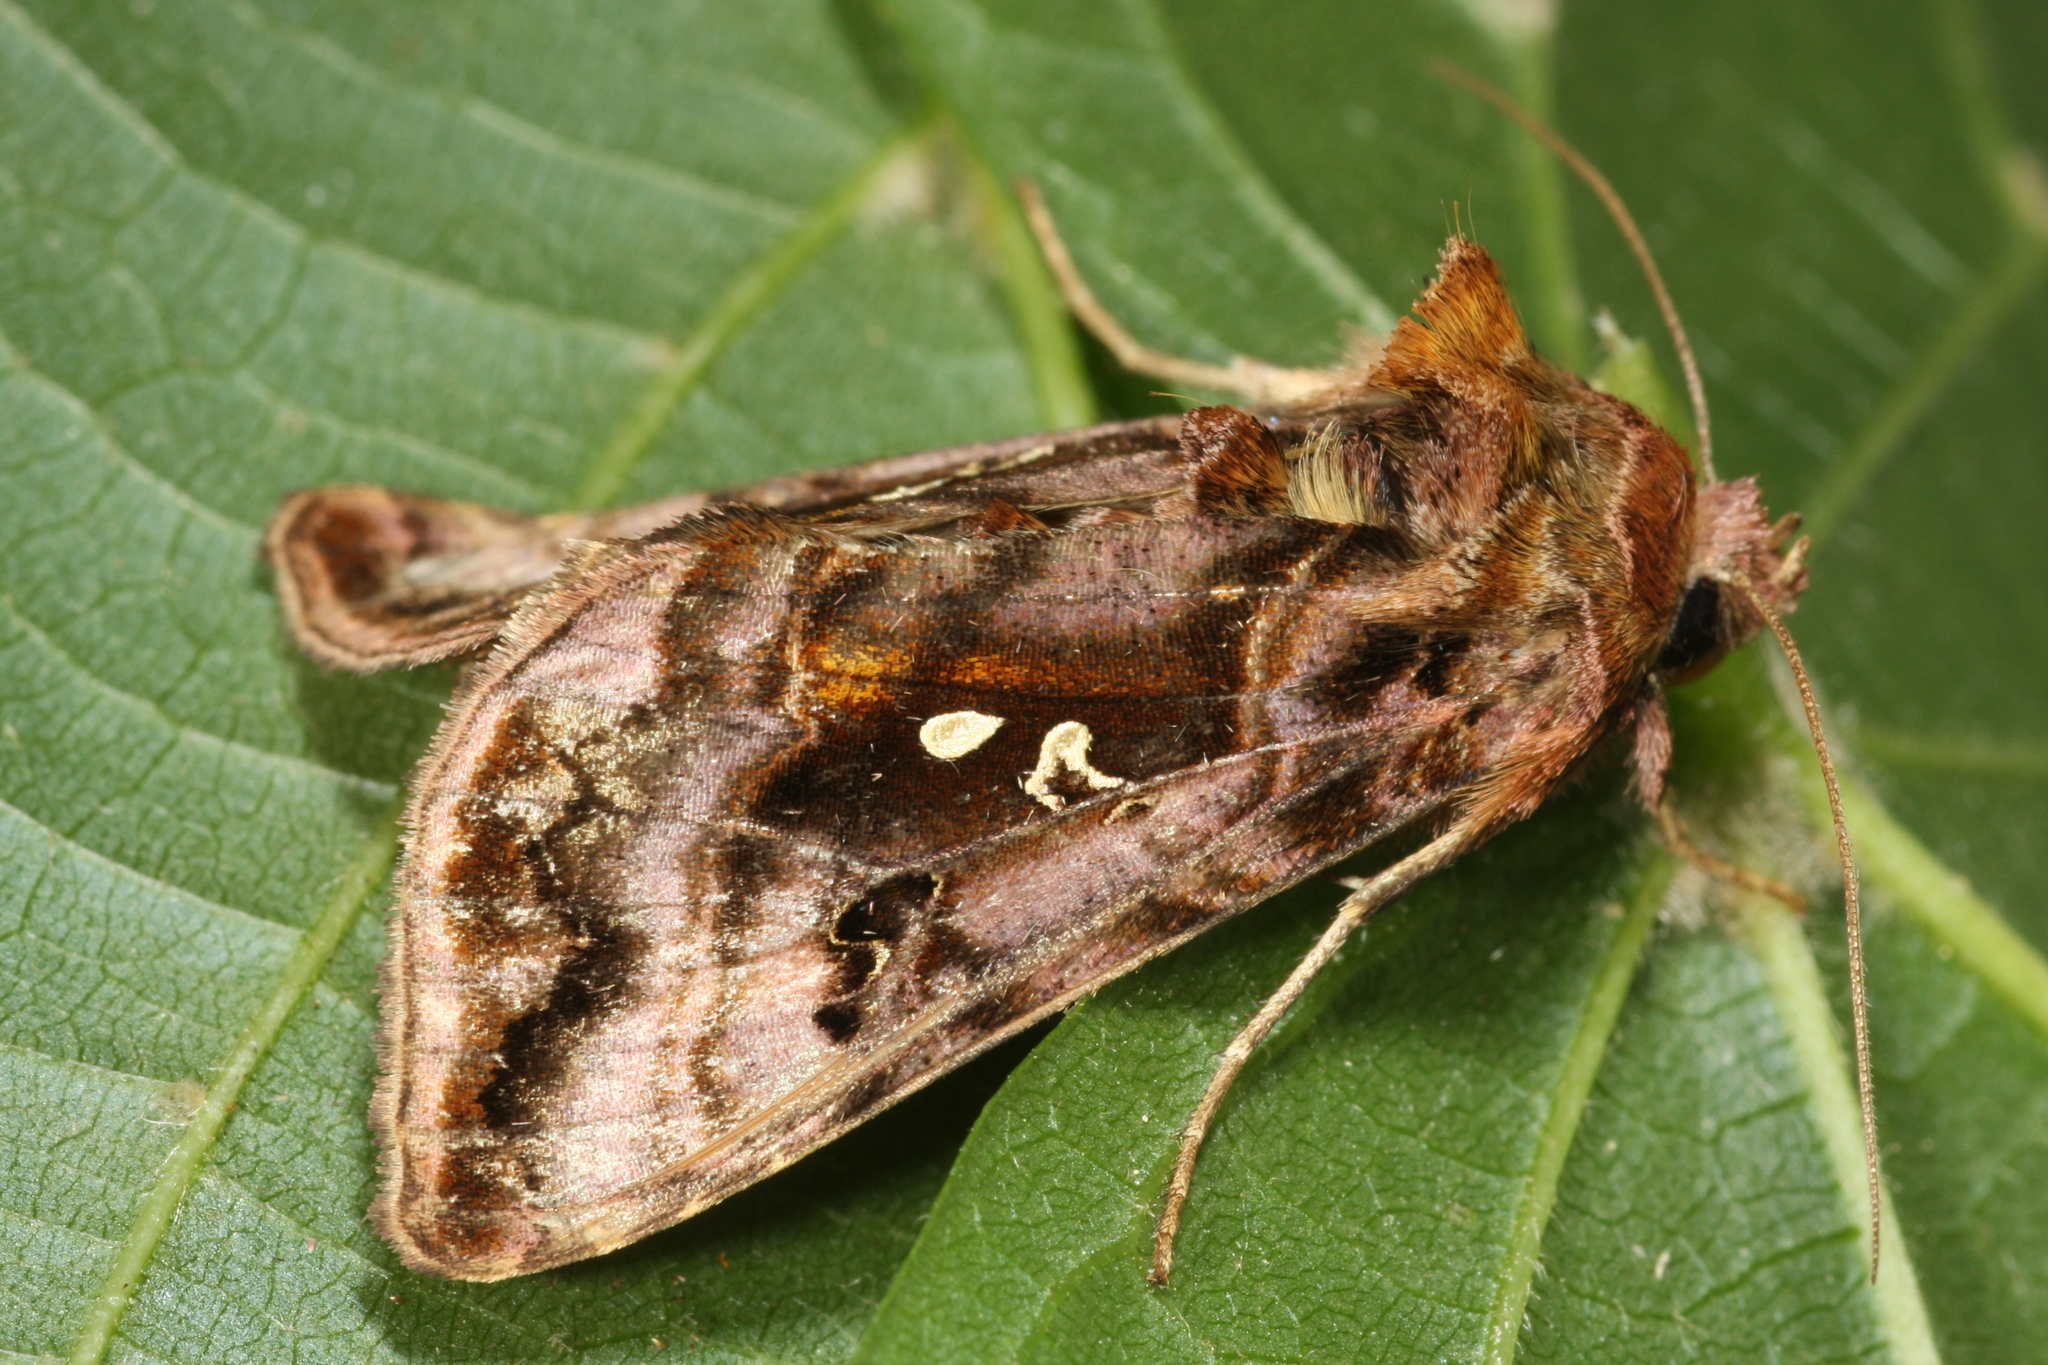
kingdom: Animalia
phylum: Arthropoda
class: Insecta
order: Lepidoptera
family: Noctuidae
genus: Autographa
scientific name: Autographa pulchrina
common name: Beautiful golden y
